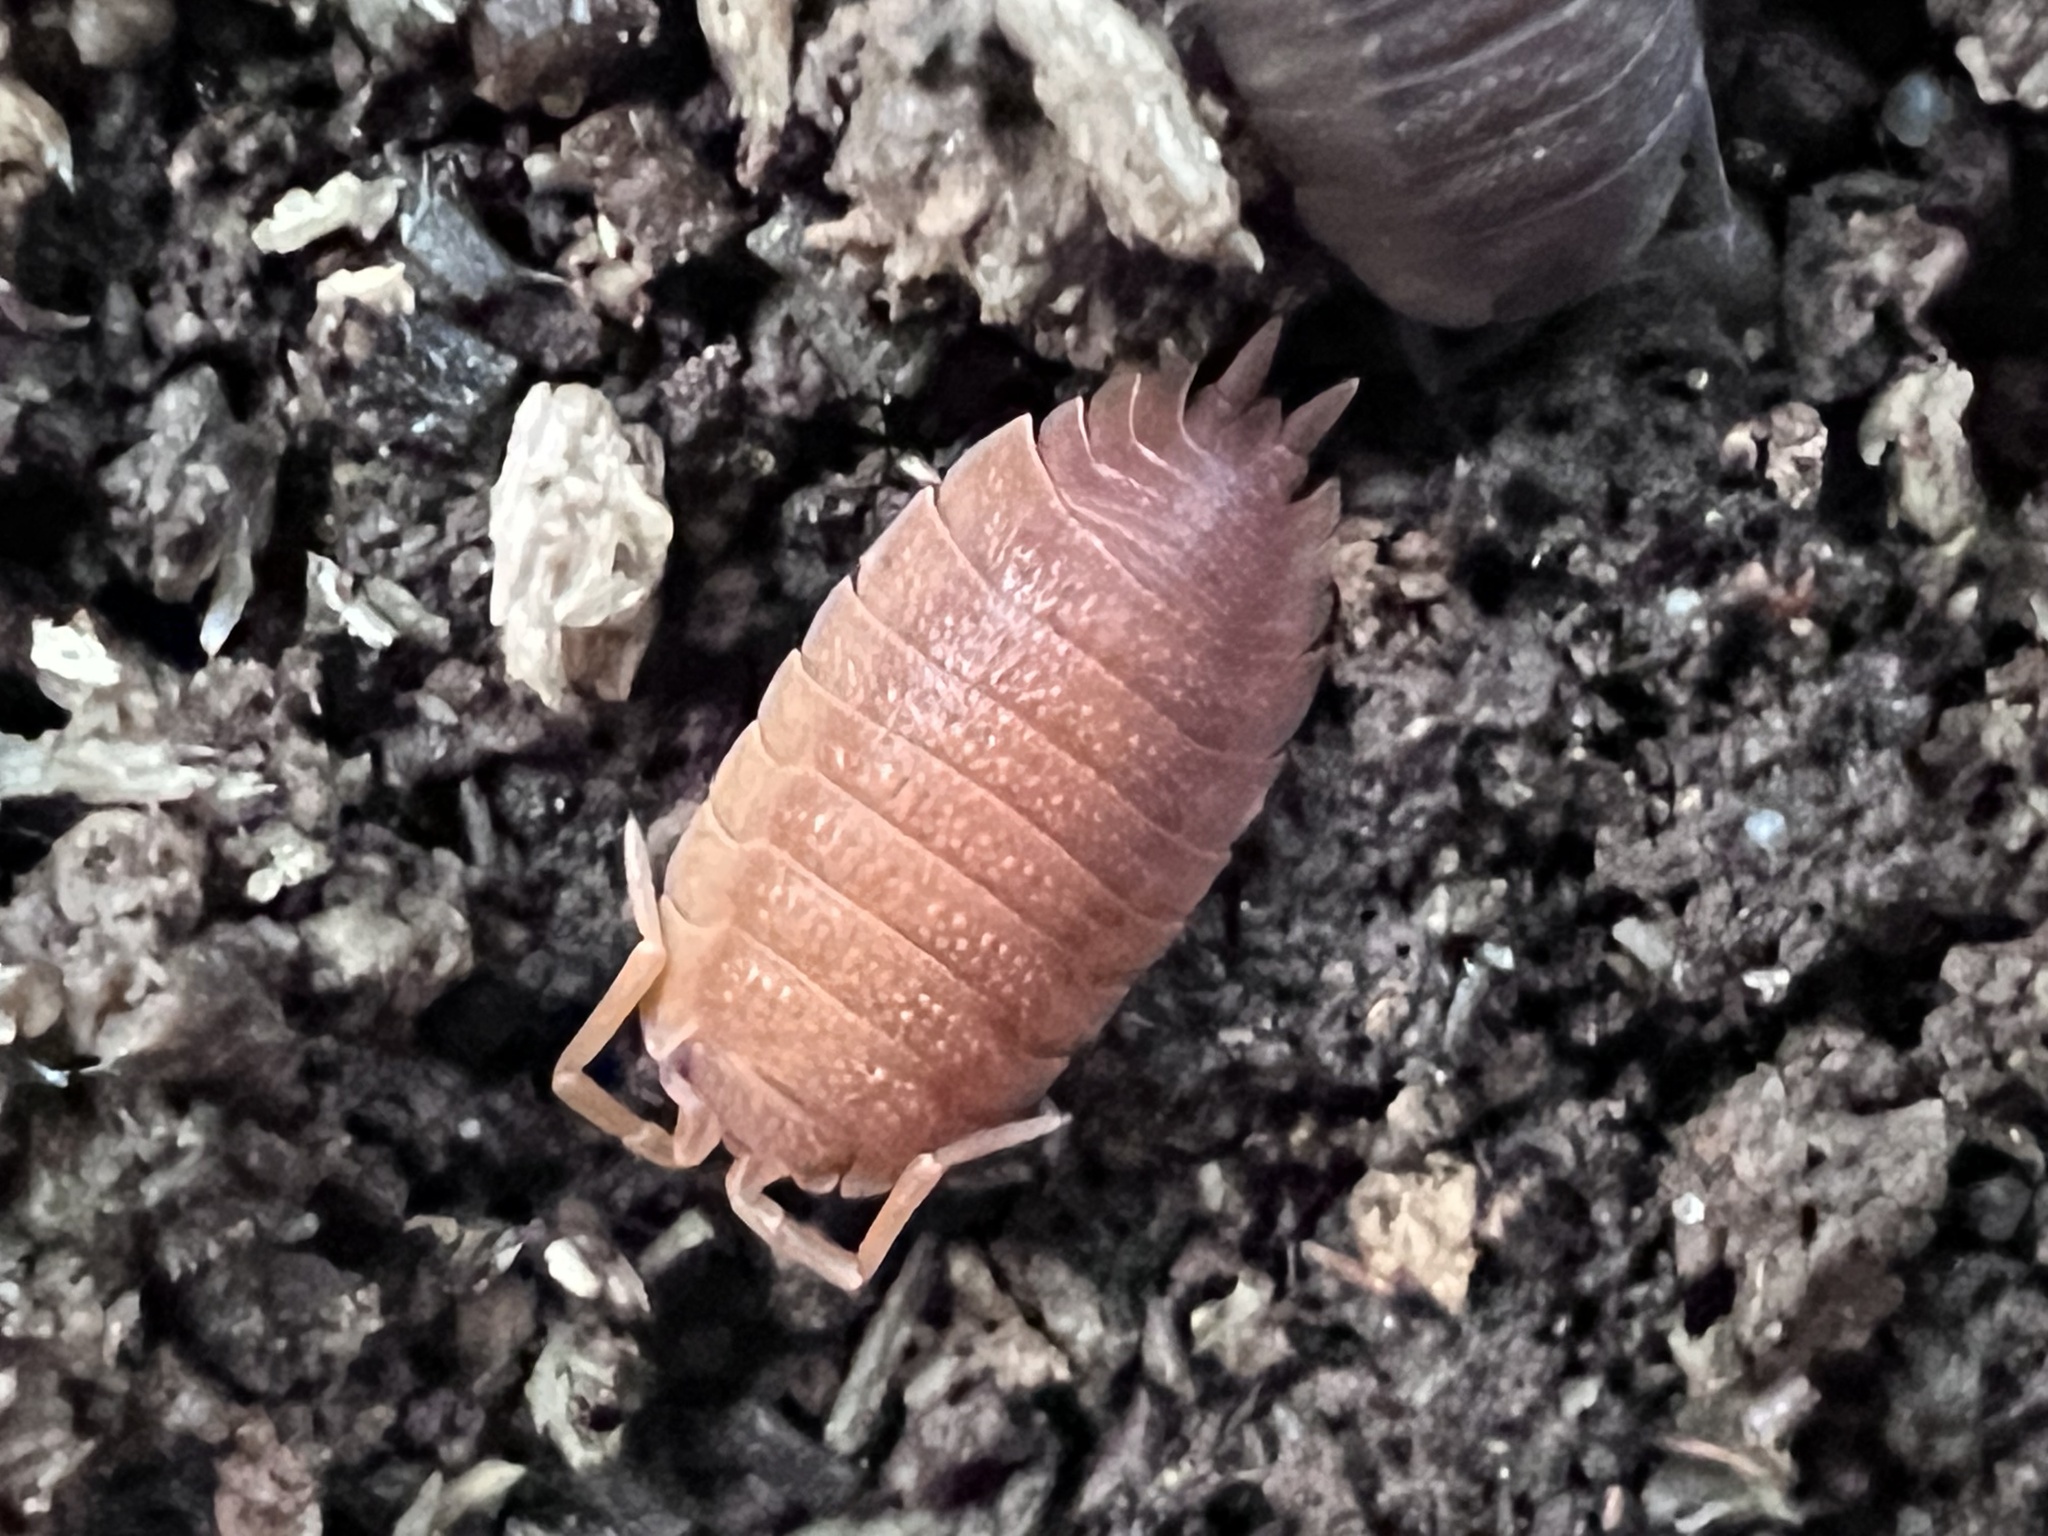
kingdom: Animalia
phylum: Arthropoda
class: Malacostraca
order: Isopoda
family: Porcellionidae
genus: Porcellio
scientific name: Porcellio scaber
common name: Common rough woodlouse
